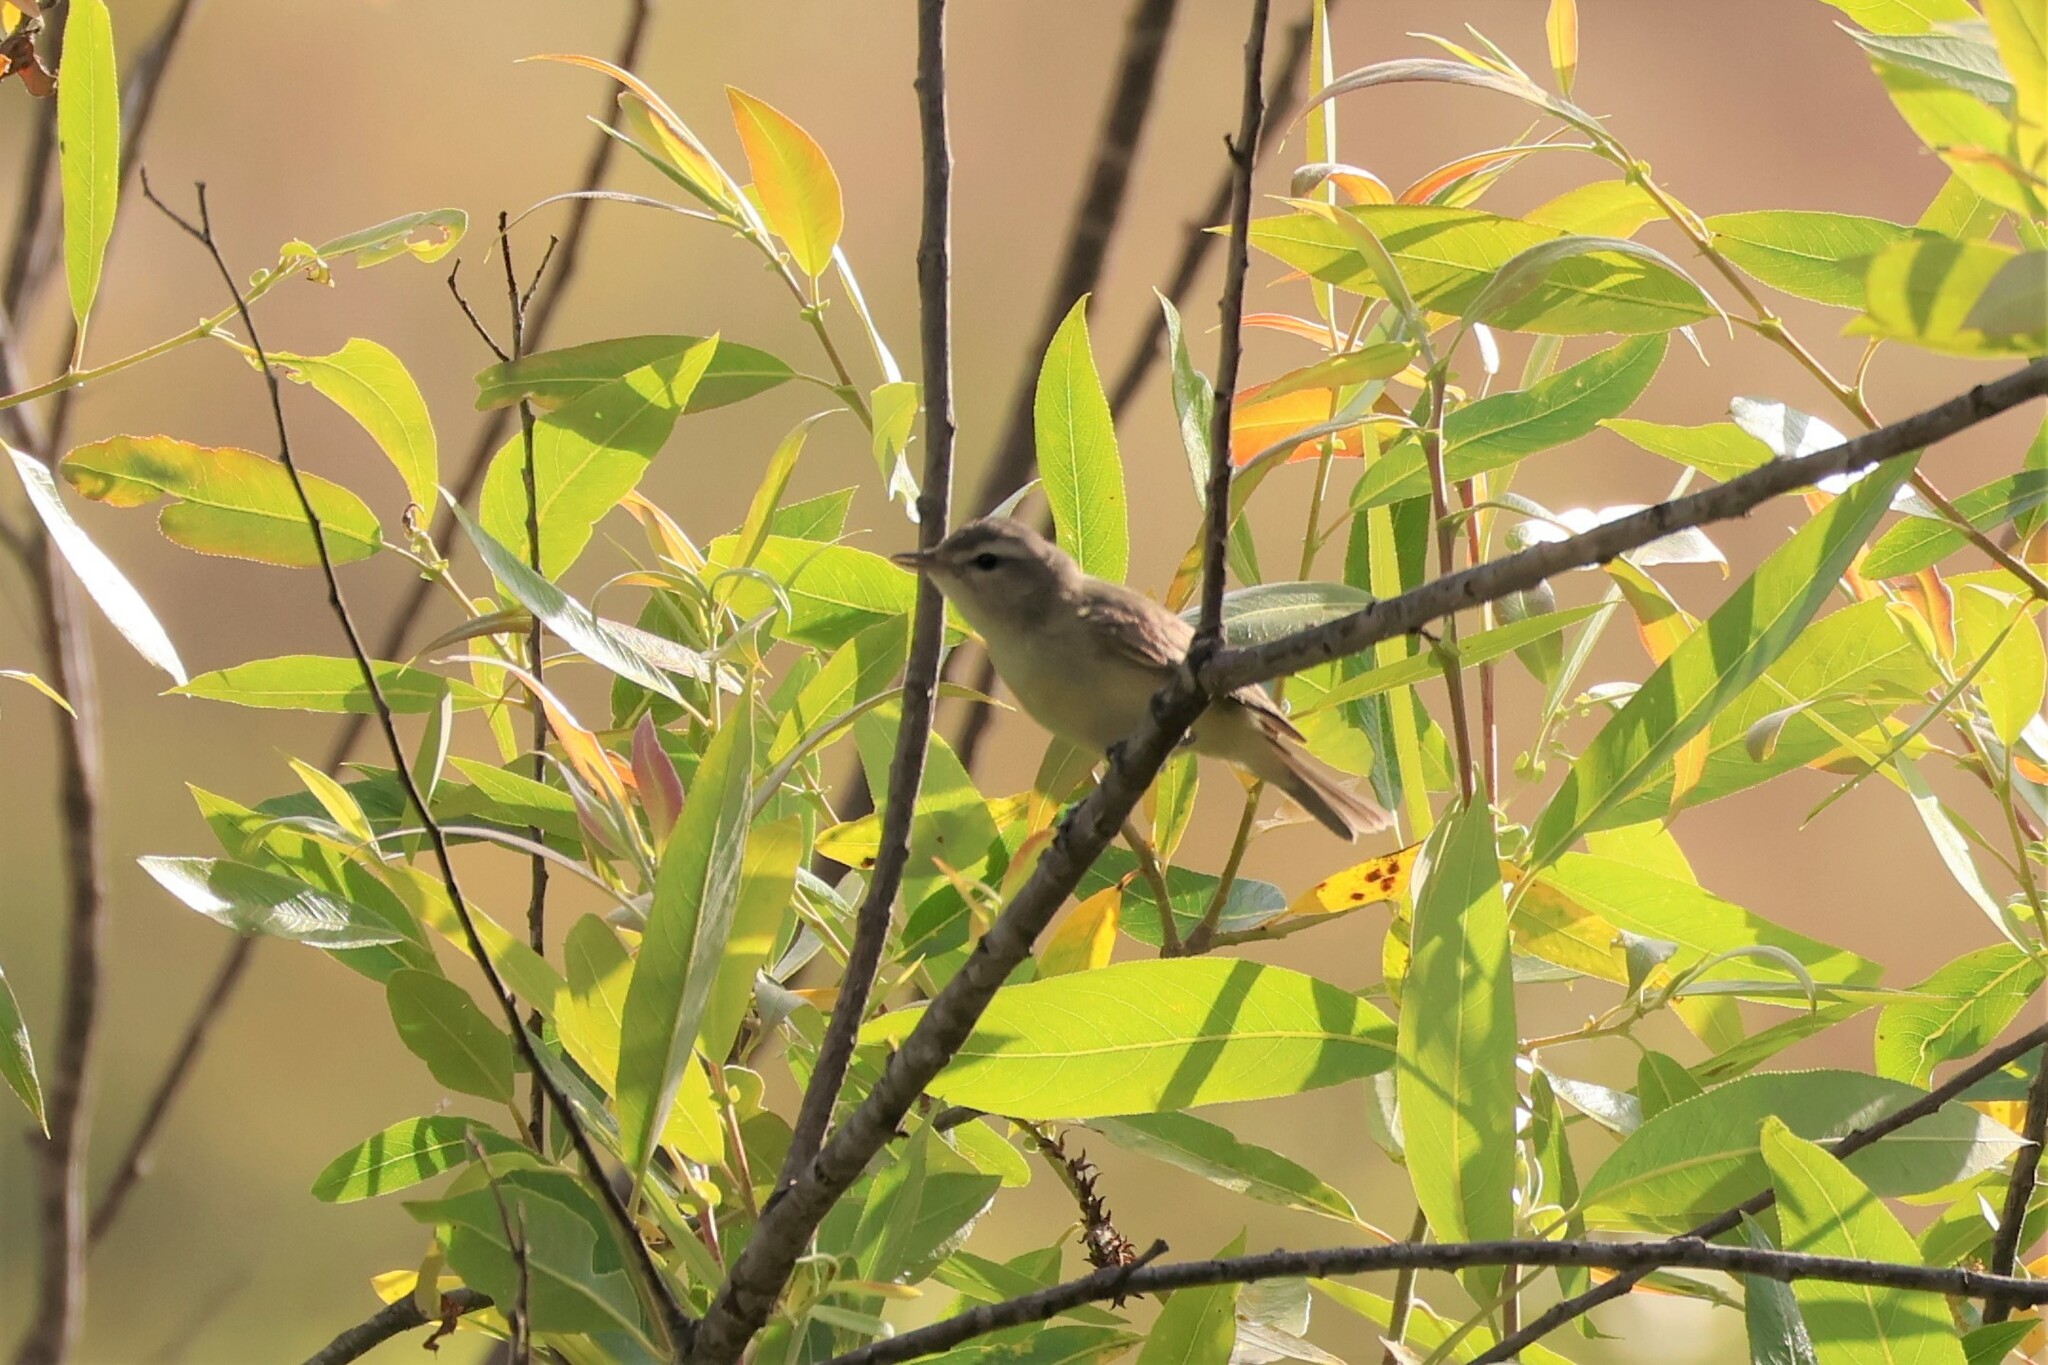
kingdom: Animalia
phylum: Chordata
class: Aves
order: Passeriformes
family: Vireonidae
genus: Vireo
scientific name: Vireo gilvus
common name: Warbling vireo
